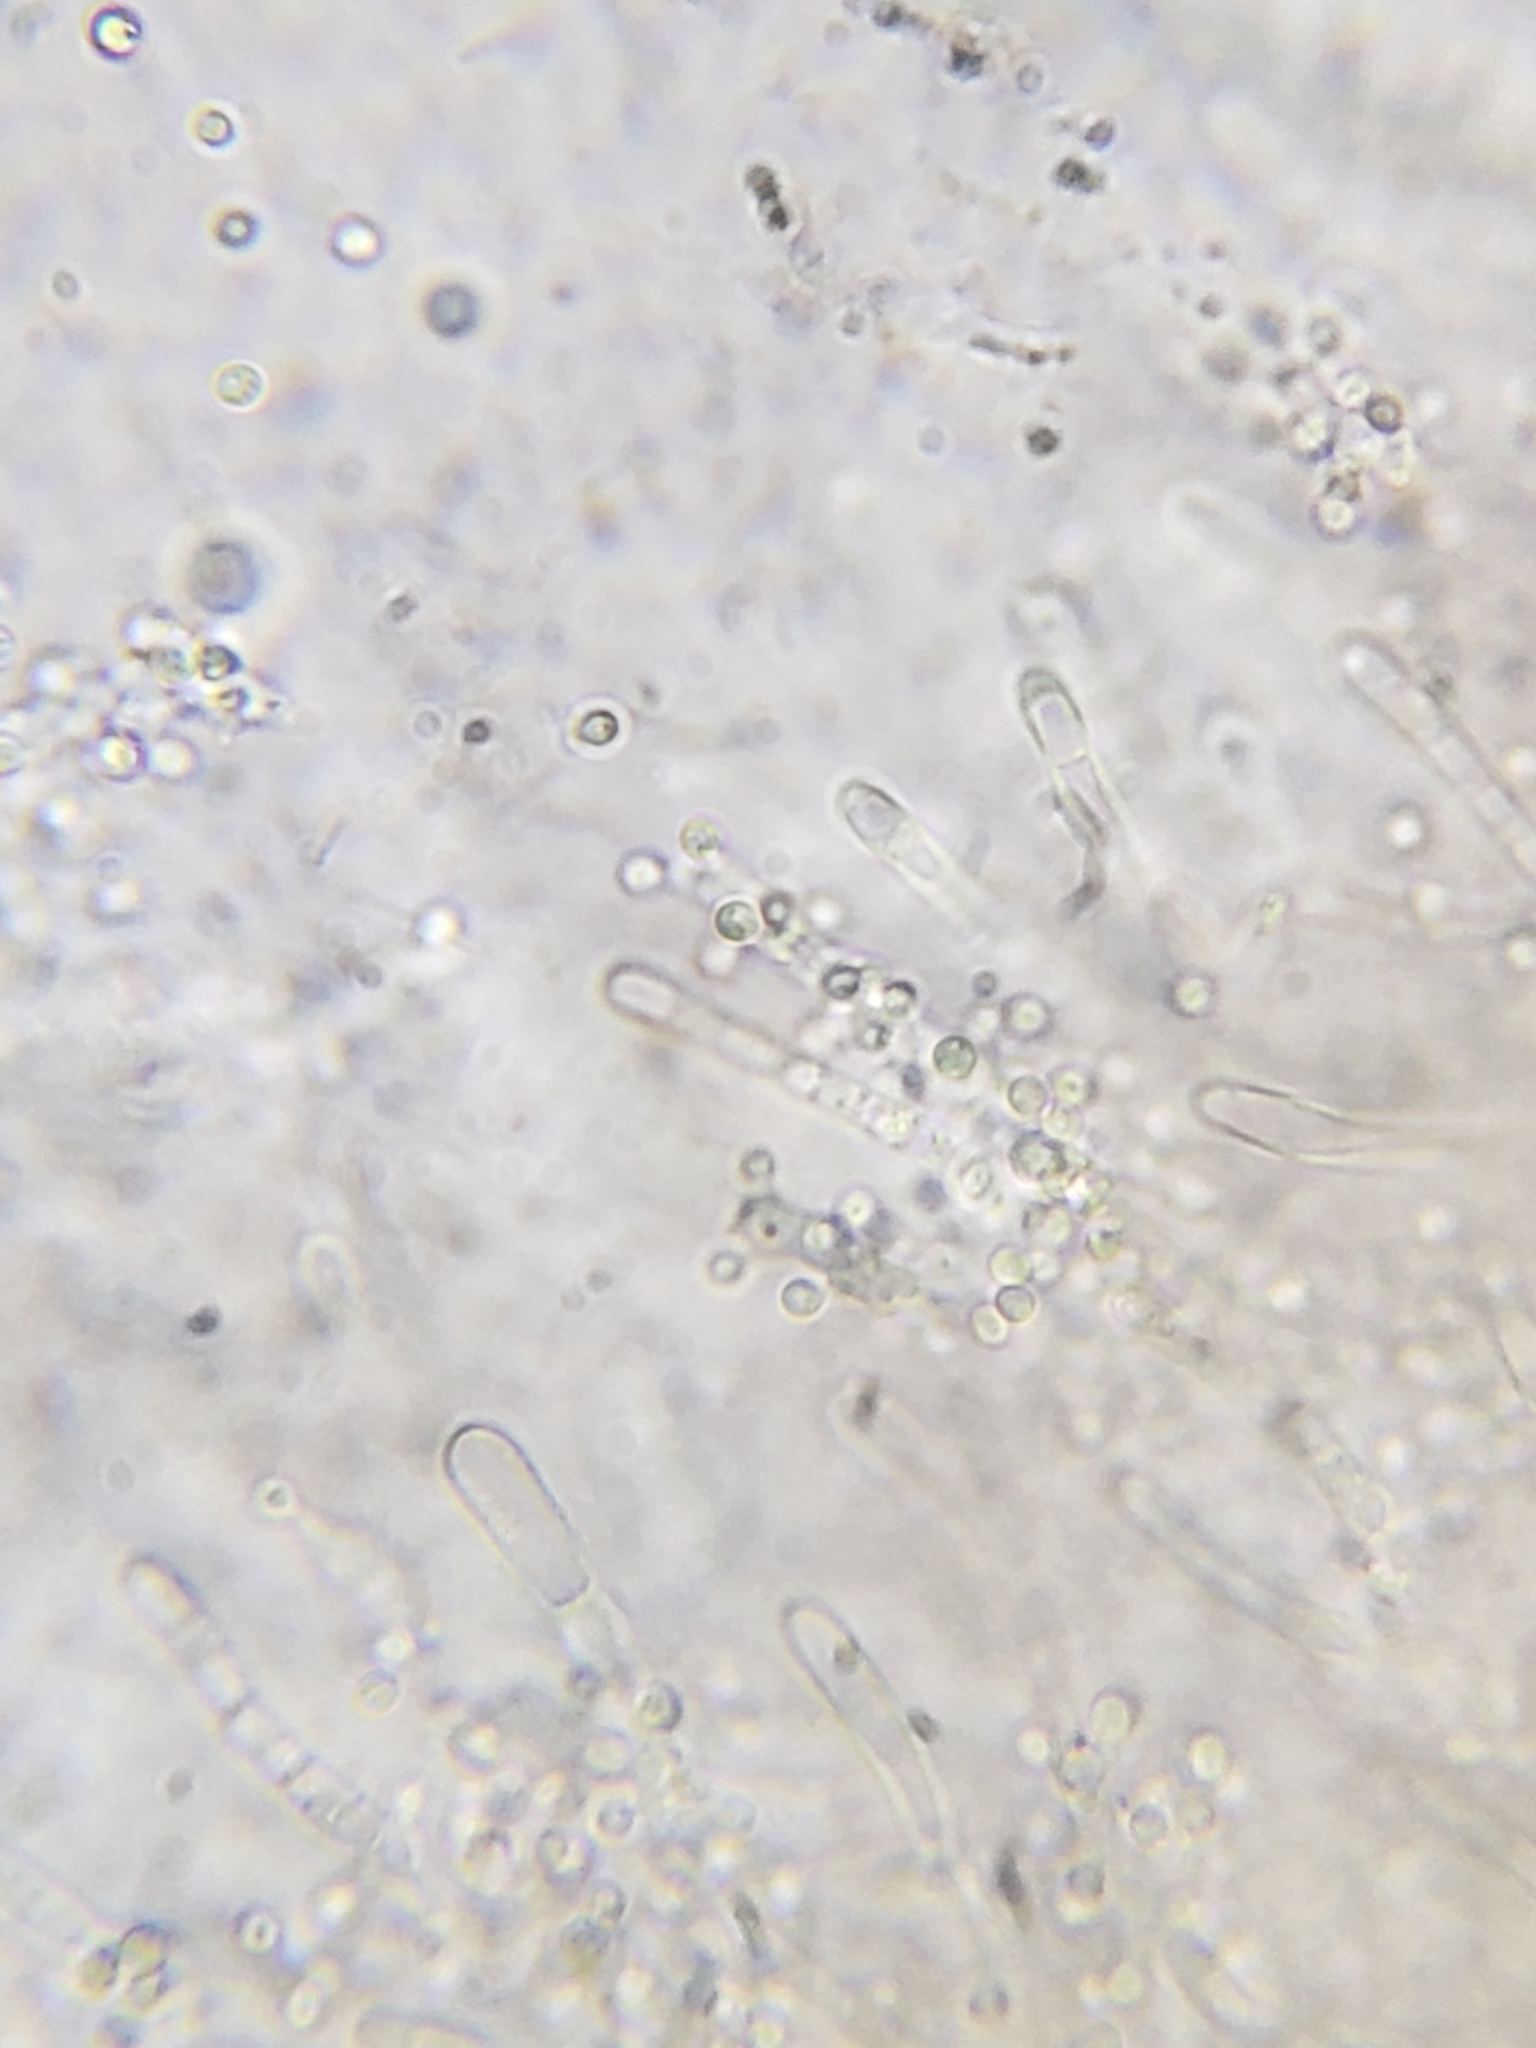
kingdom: Fungi
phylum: Basidiomycota
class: Dacrymycetes
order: Dacrymycetales
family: Dacrymycetaceae
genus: Dacrymyces
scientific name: Dacrymyces capitatus
